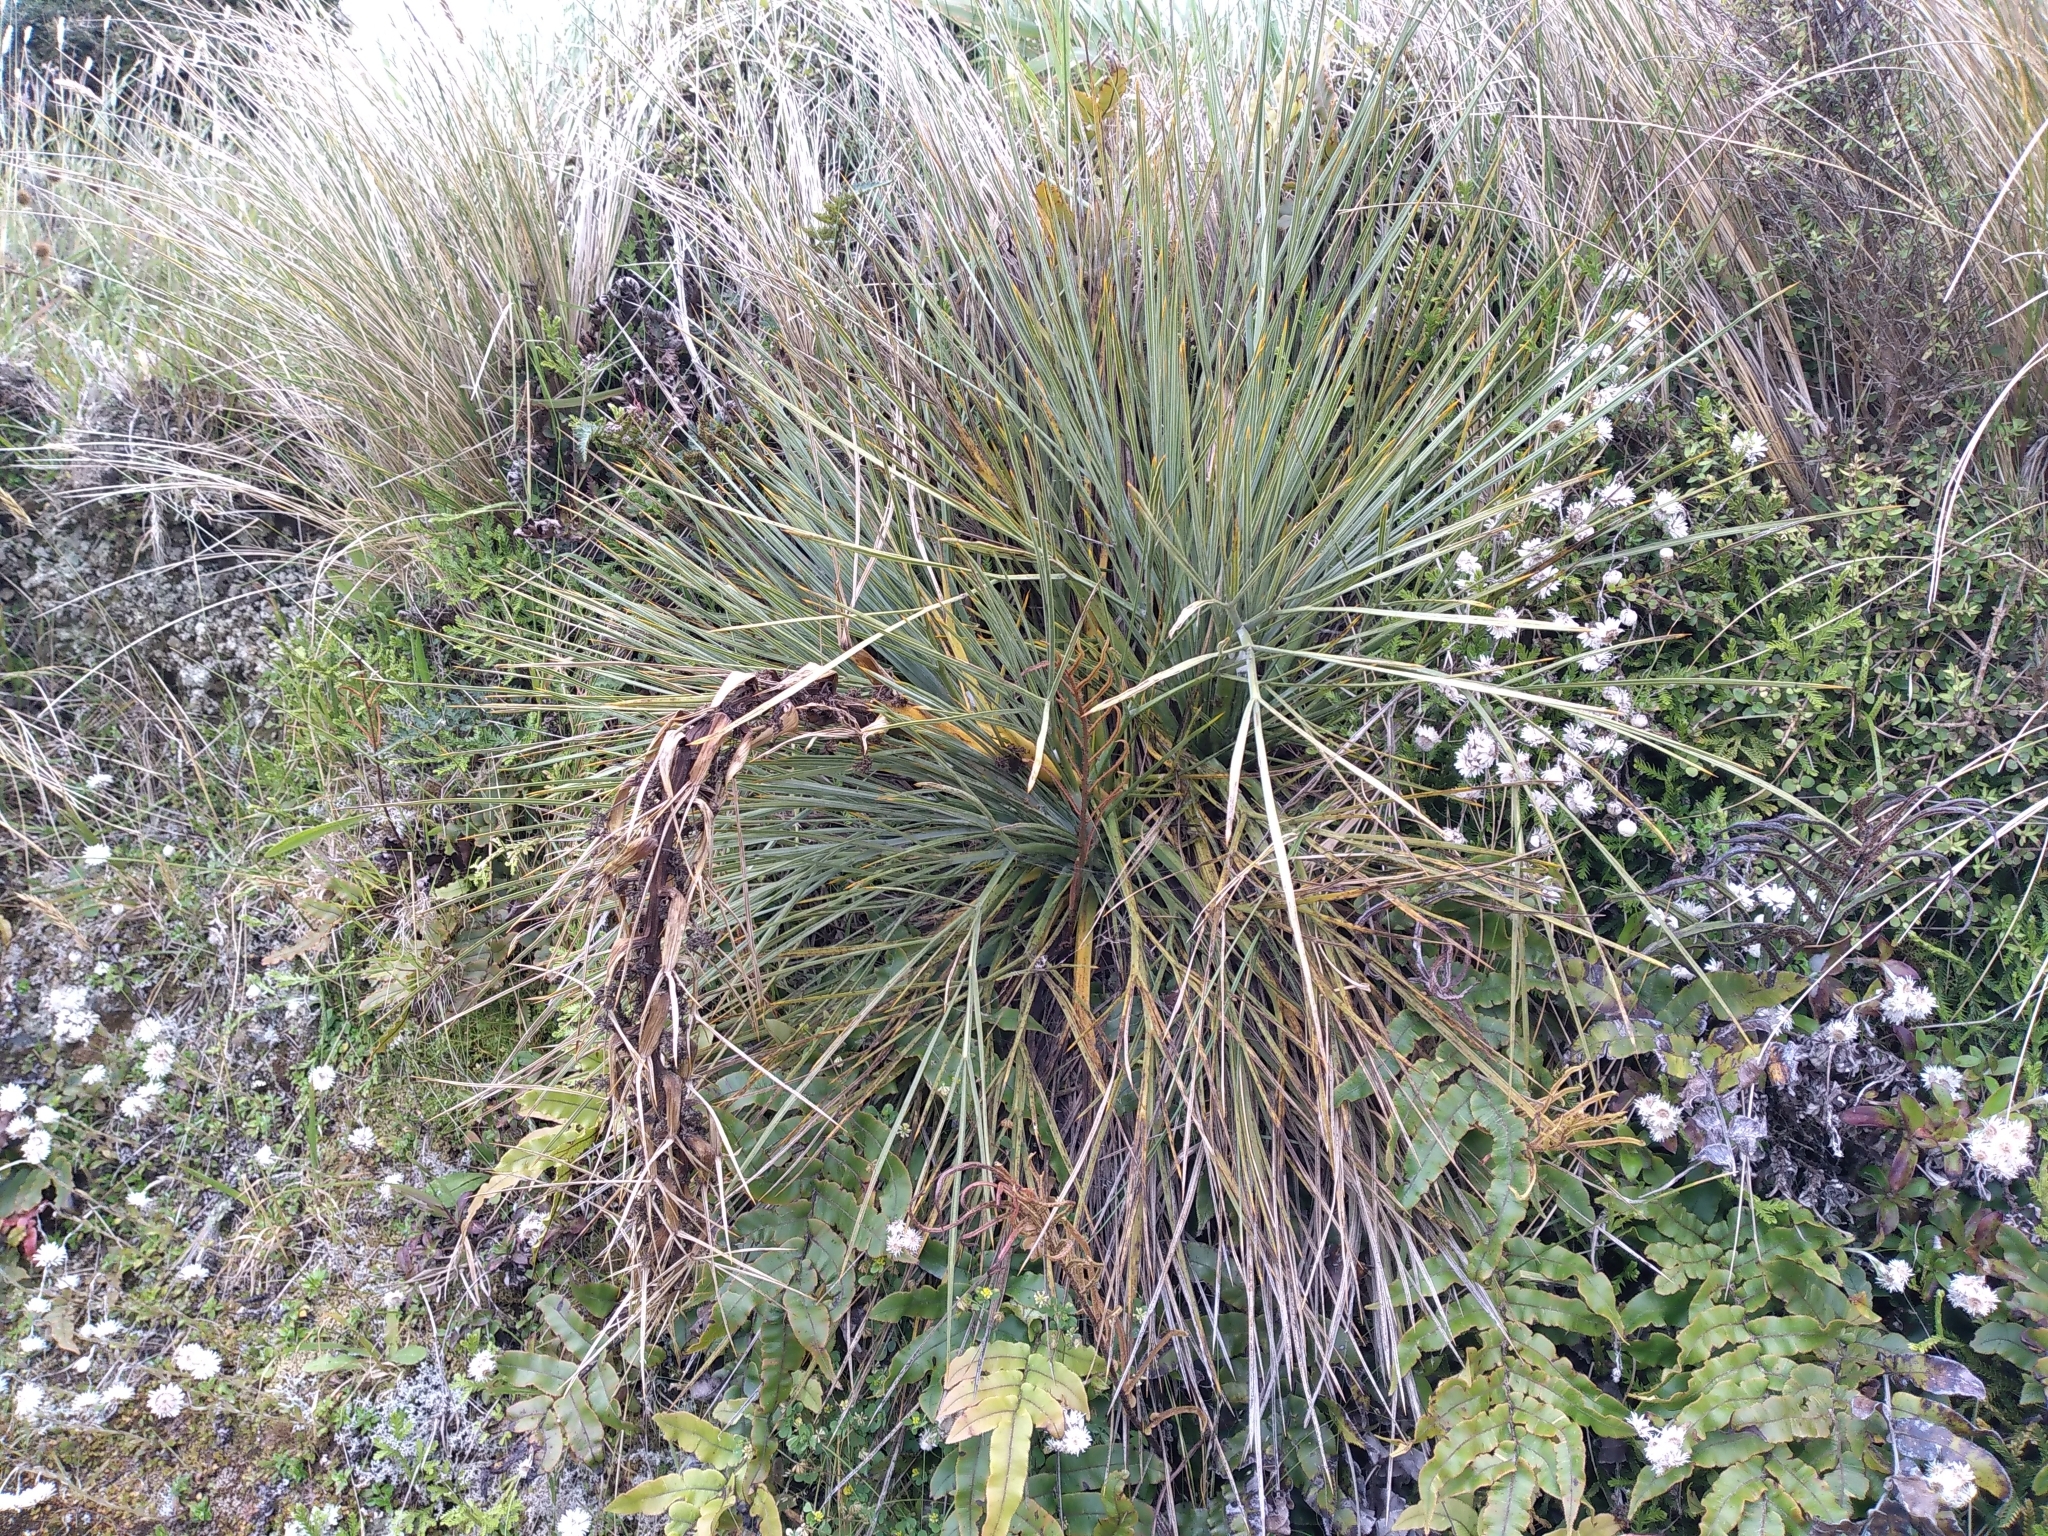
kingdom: Plantae
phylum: Tracheophyta
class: Magnoliopsida
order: Apiales
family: Apiaceae
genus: Aciphylla
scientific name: Aciphylla squarrosa
